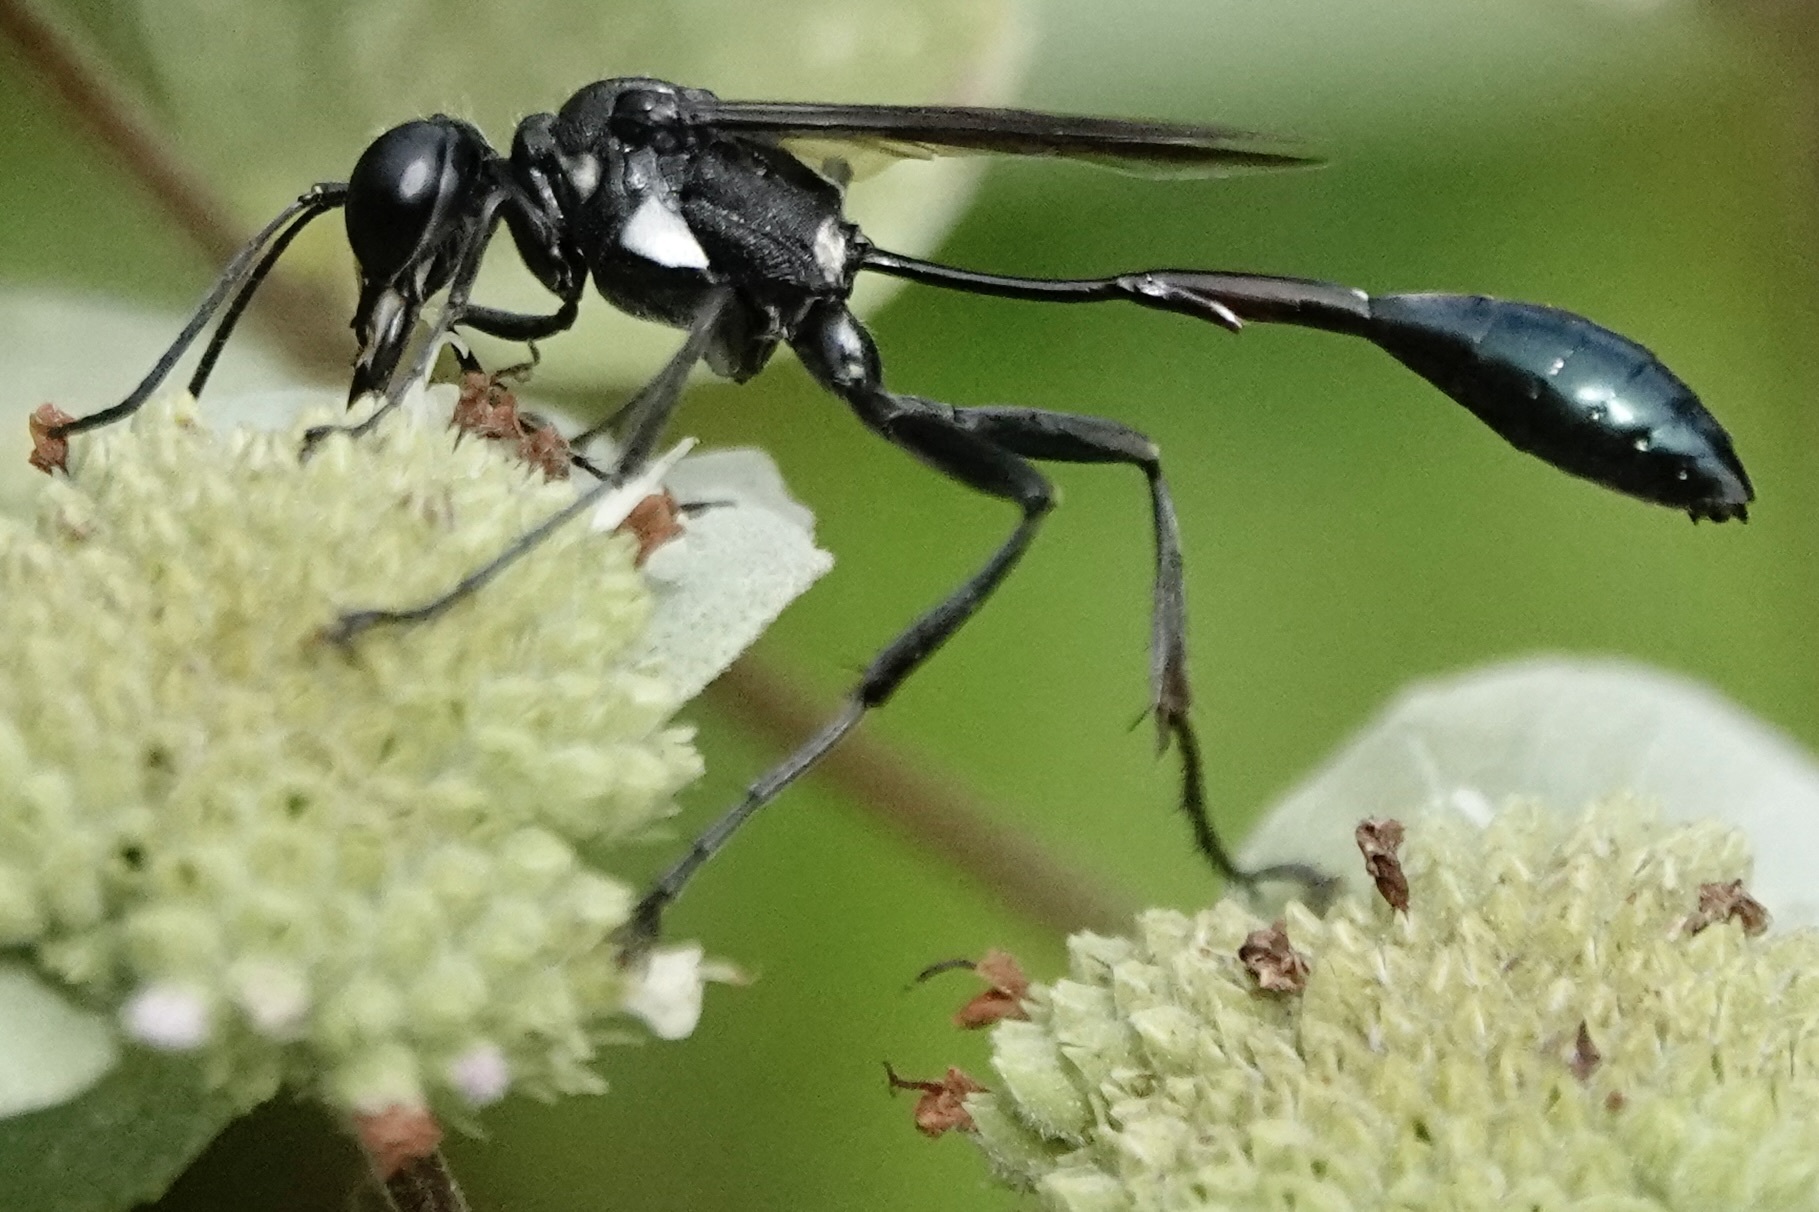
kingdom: Animalia
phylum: Arthropoda
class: Insecta
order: Hymenoptera
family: Sphecidae
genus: Eremnophila
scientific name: Eremnophila aureonotata
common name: Gold-marked thread-waisted wasp
